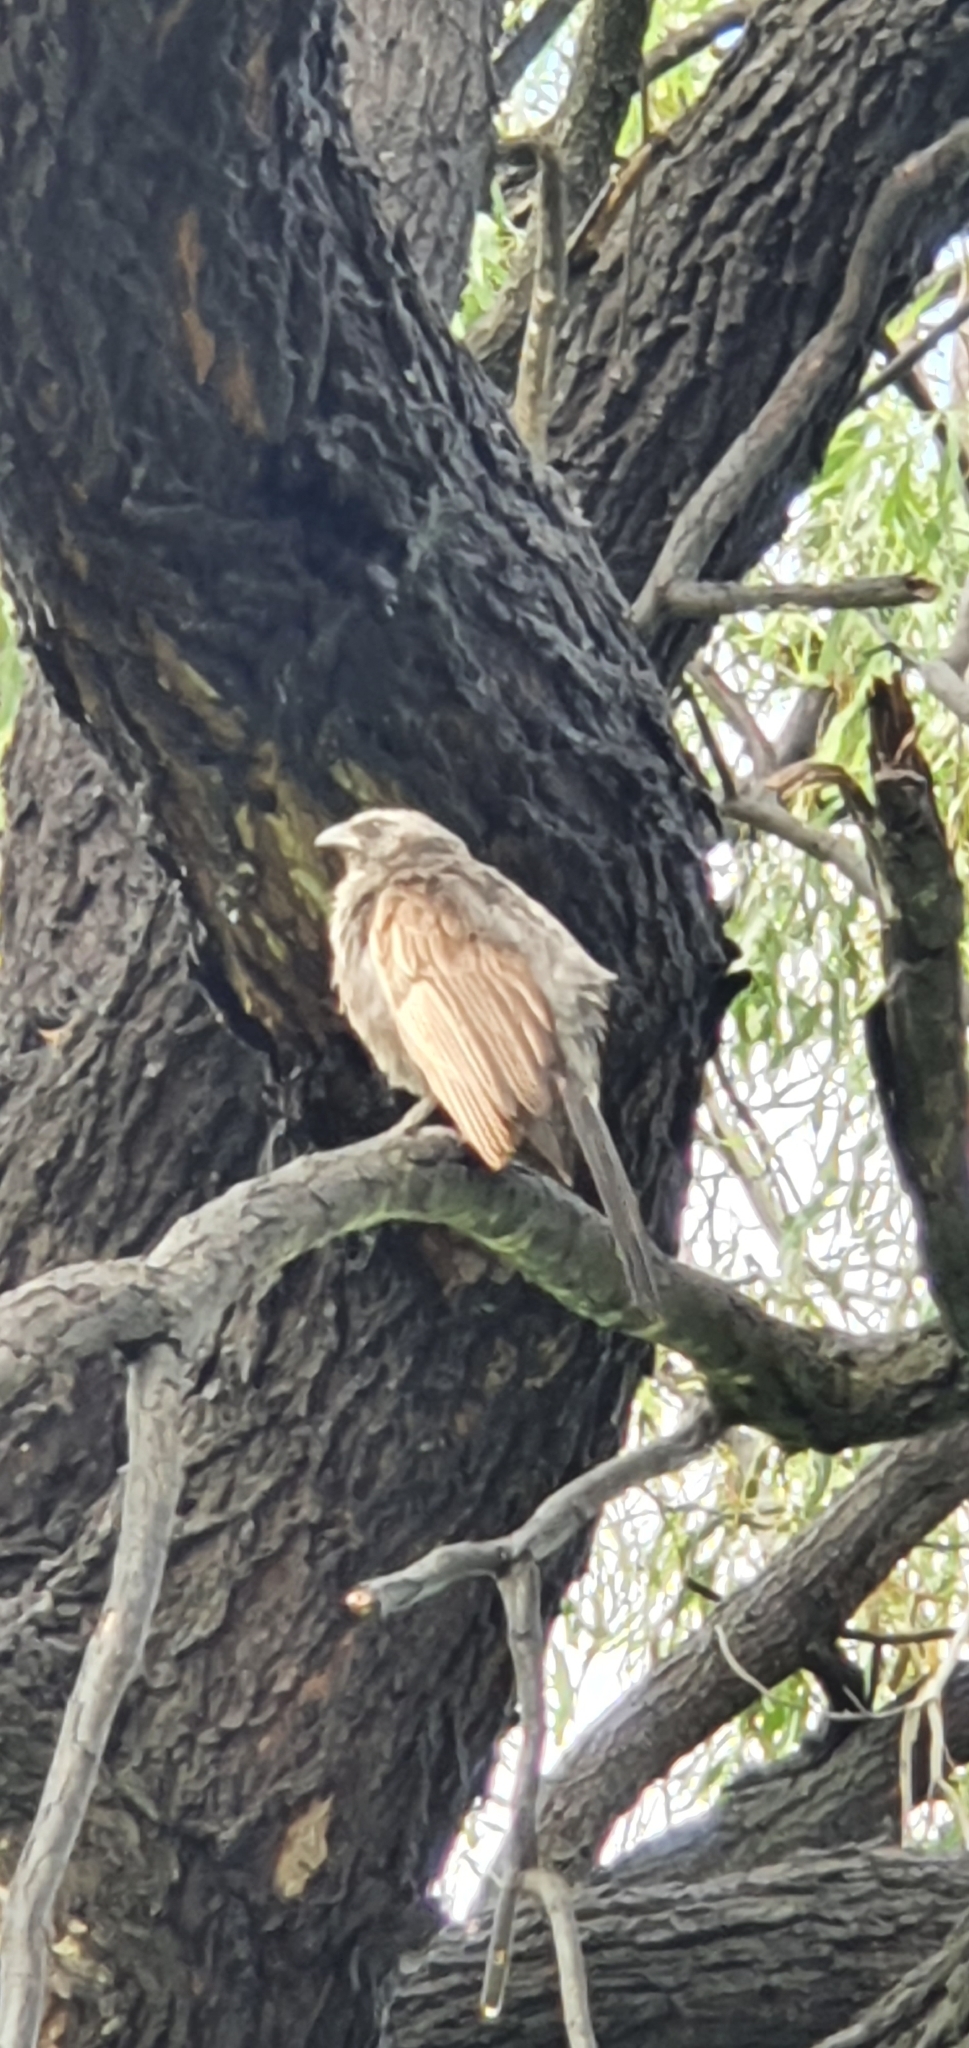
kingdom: Animalia
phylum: Chordata
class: Aves
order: Passeriformes
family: Corcoracidae
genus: Struthidea
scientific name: Struthidea cinerea
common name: Apostlebird
